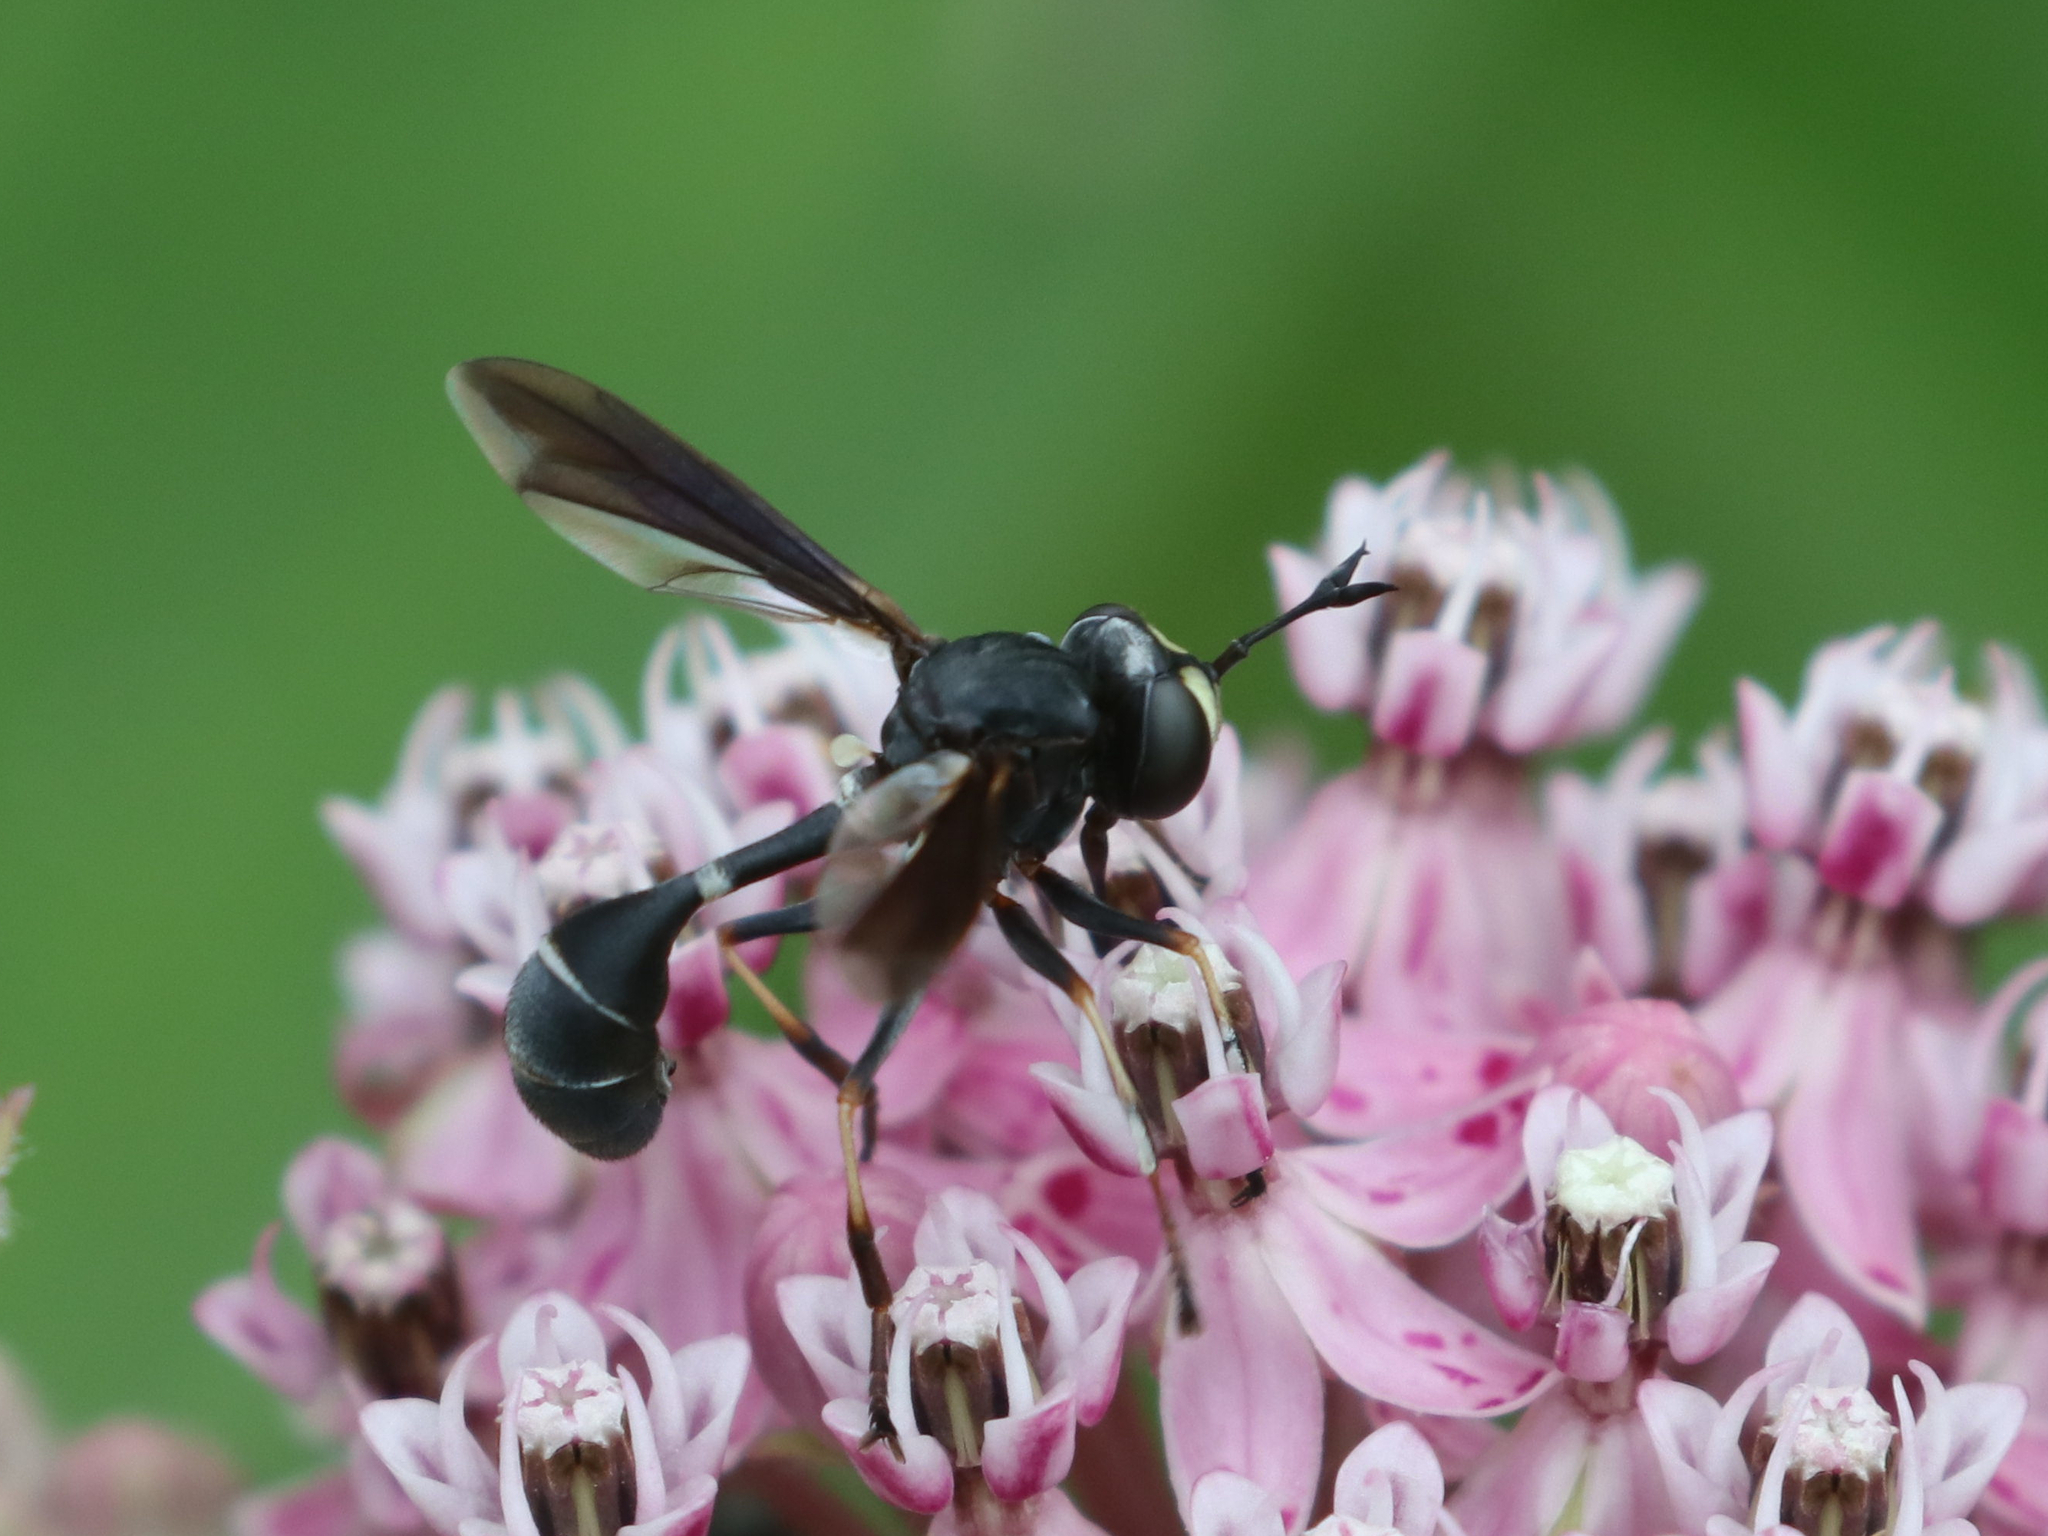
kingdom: Animalia
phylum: Arthropoda
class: Insecta
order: Diptera
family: Conopidae
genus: Physocephala
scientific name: Physocephala tibialis
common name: Common eastern physocephala
